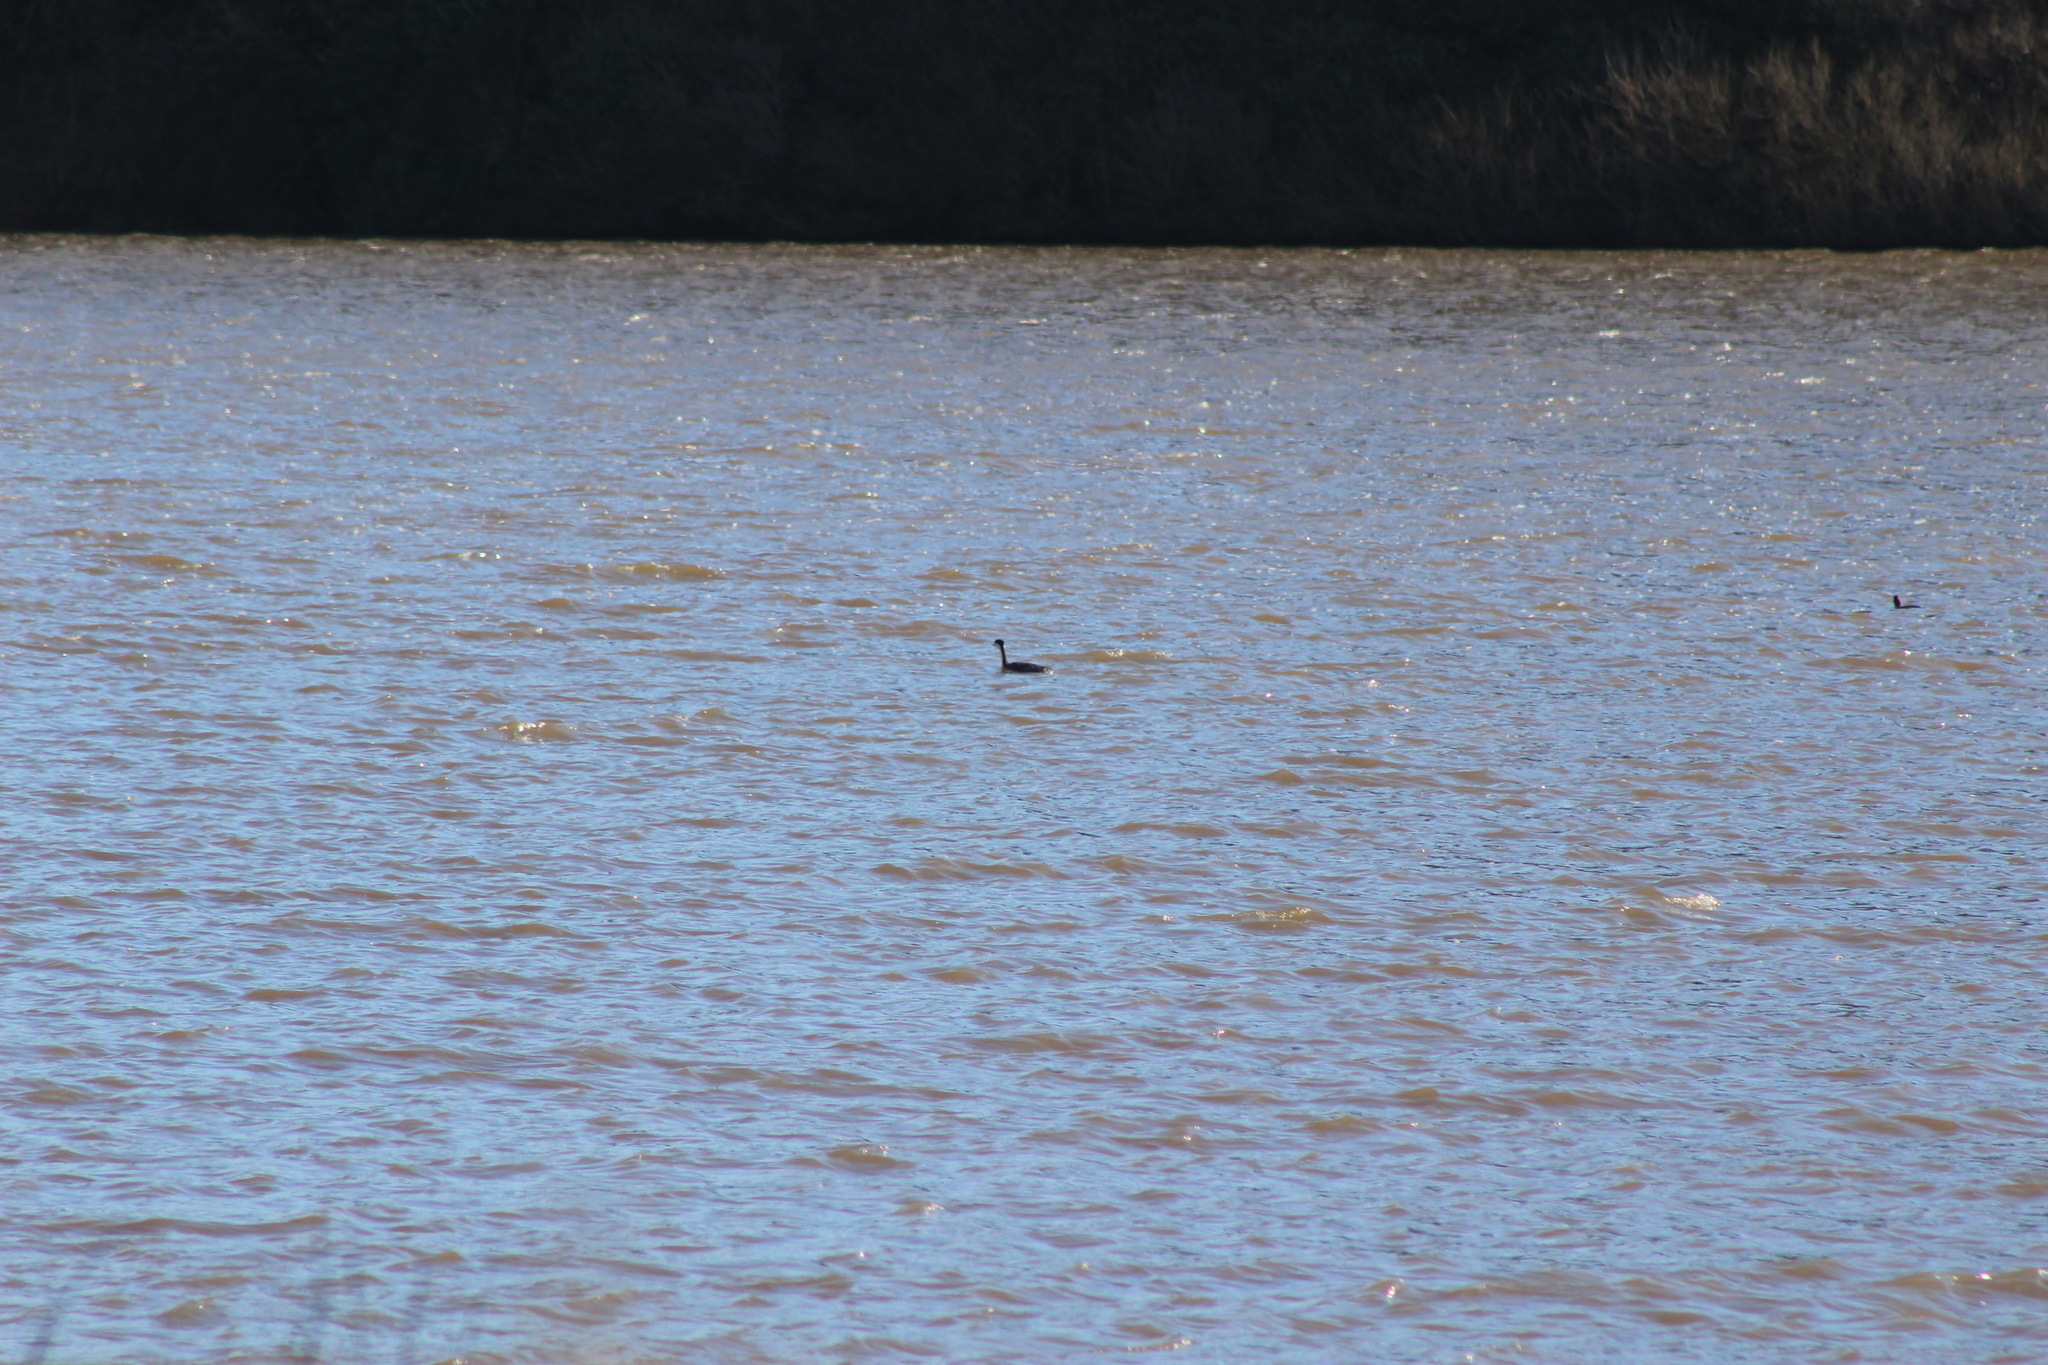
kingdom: Animalia
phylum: Chordata
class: Aves
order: Podicipediformes
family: Podicipedidae
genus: Aechmophorus
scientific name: Aechmophorus
